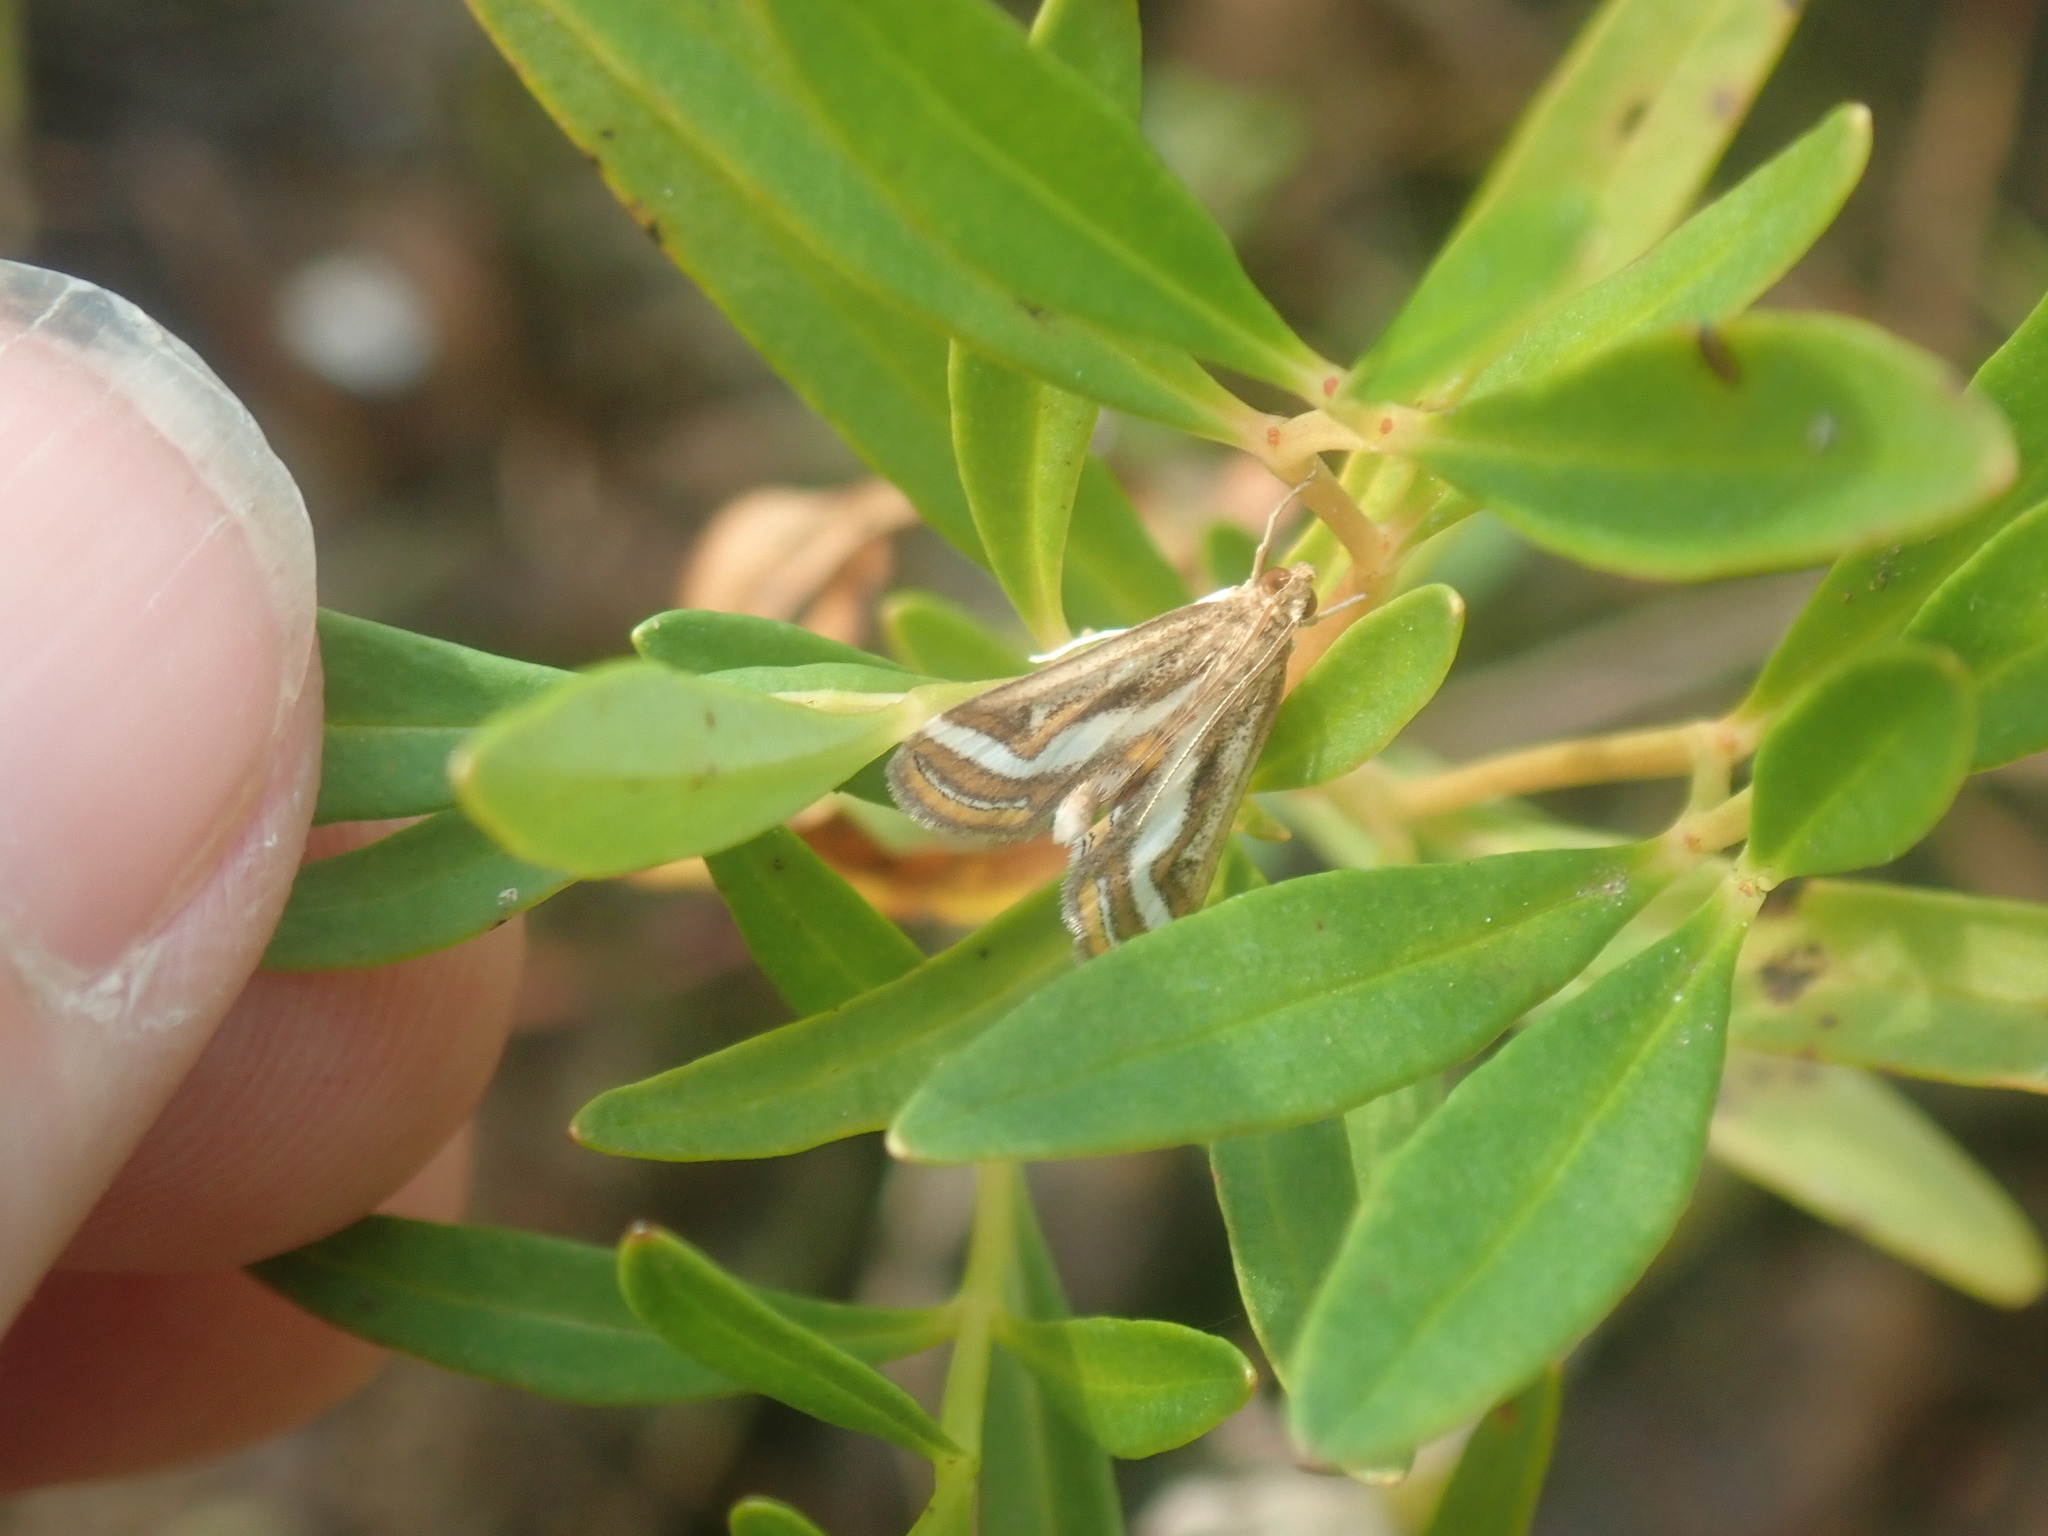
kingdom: Animalia
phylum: Arthropoda
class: Insecta
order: Lepidoptera
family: Crambidae
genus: Parapoynx
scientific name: Parapoynx seminealis
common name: Floating-heart waterlily leafcutter
